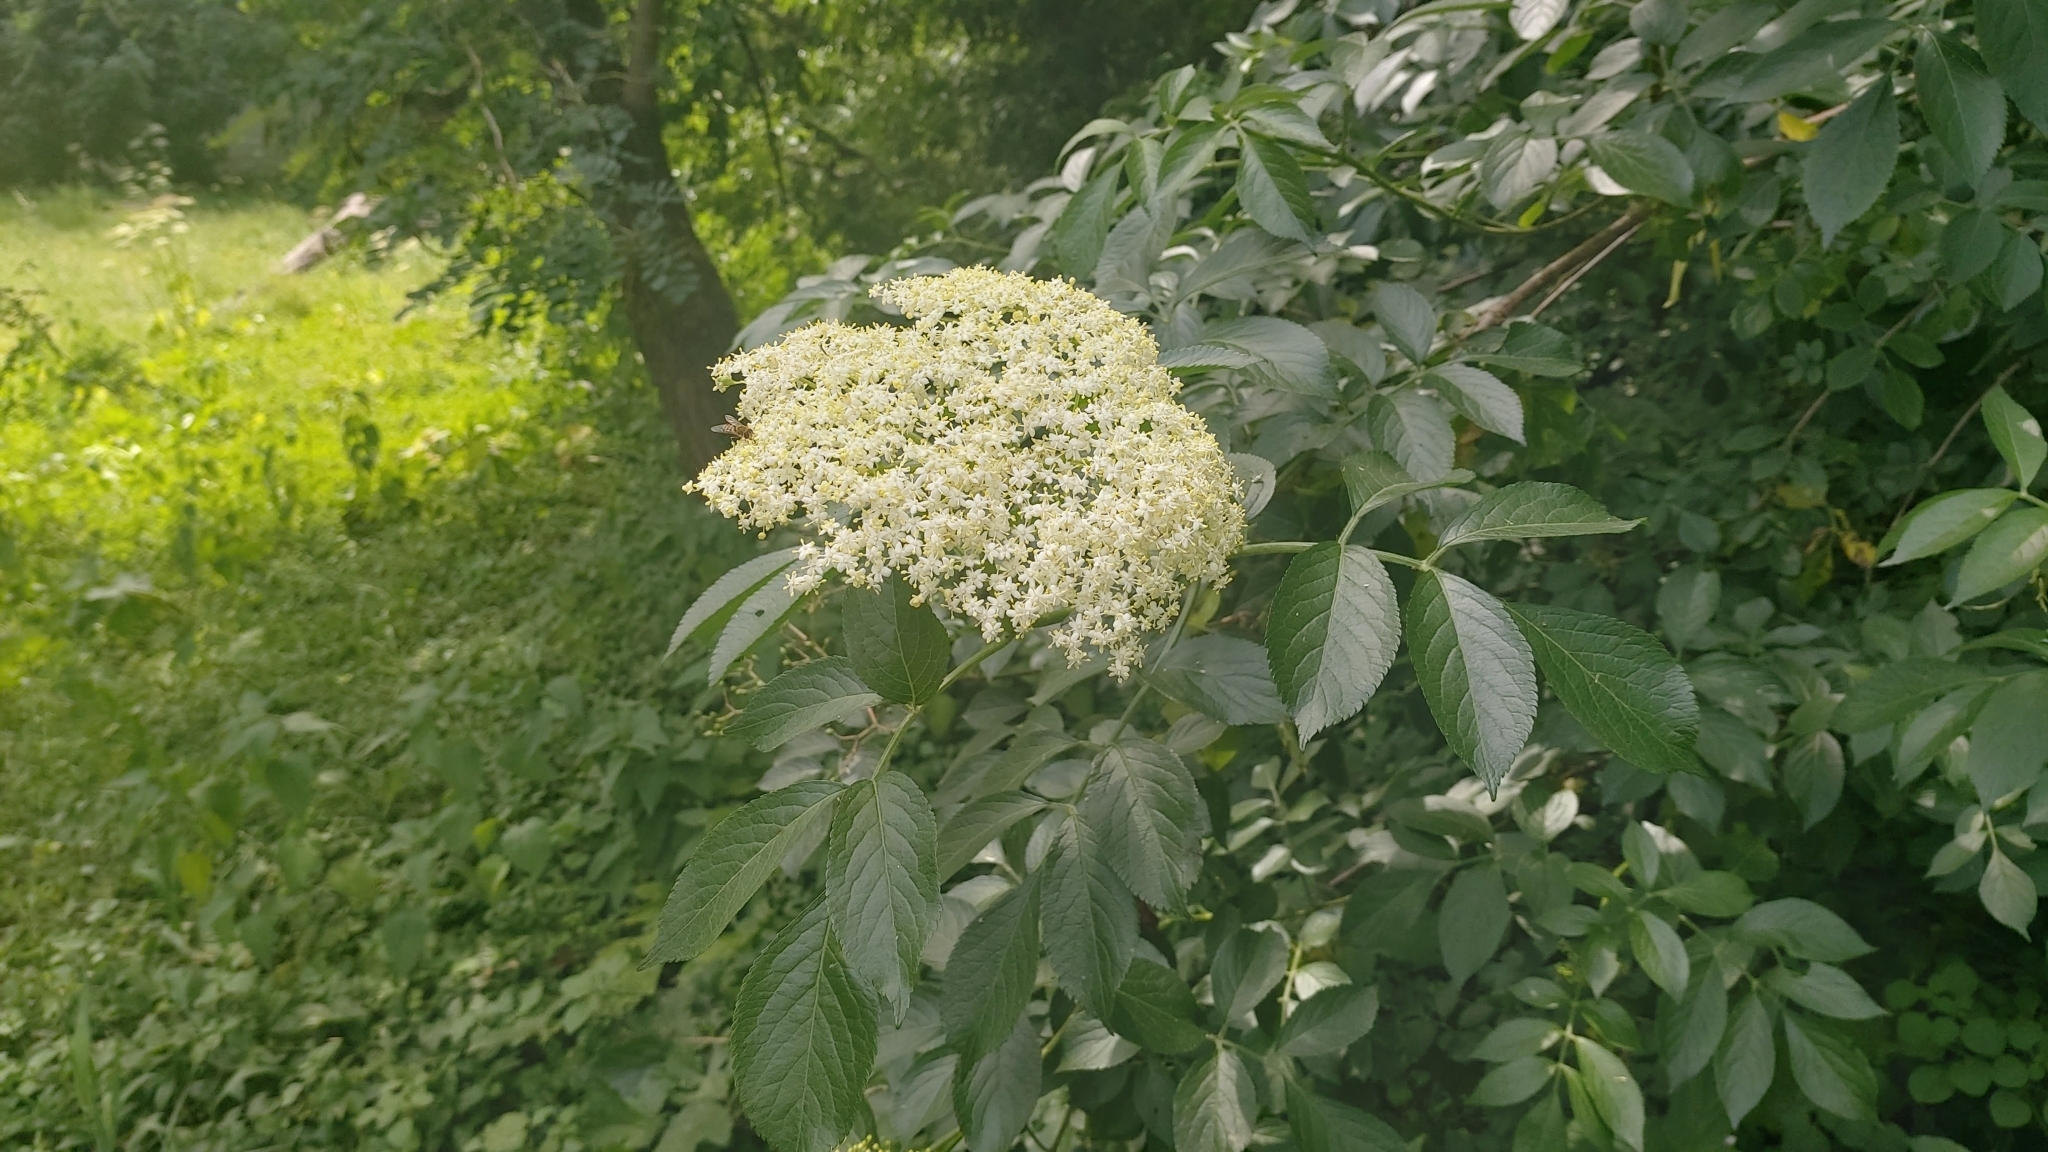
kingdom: Plantae
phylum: Tracheophyta
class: Magnoliopsida
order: Dipsacales
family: Viburnaceae
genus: Sambucus
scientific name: Sambucus nigra
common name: Elder
